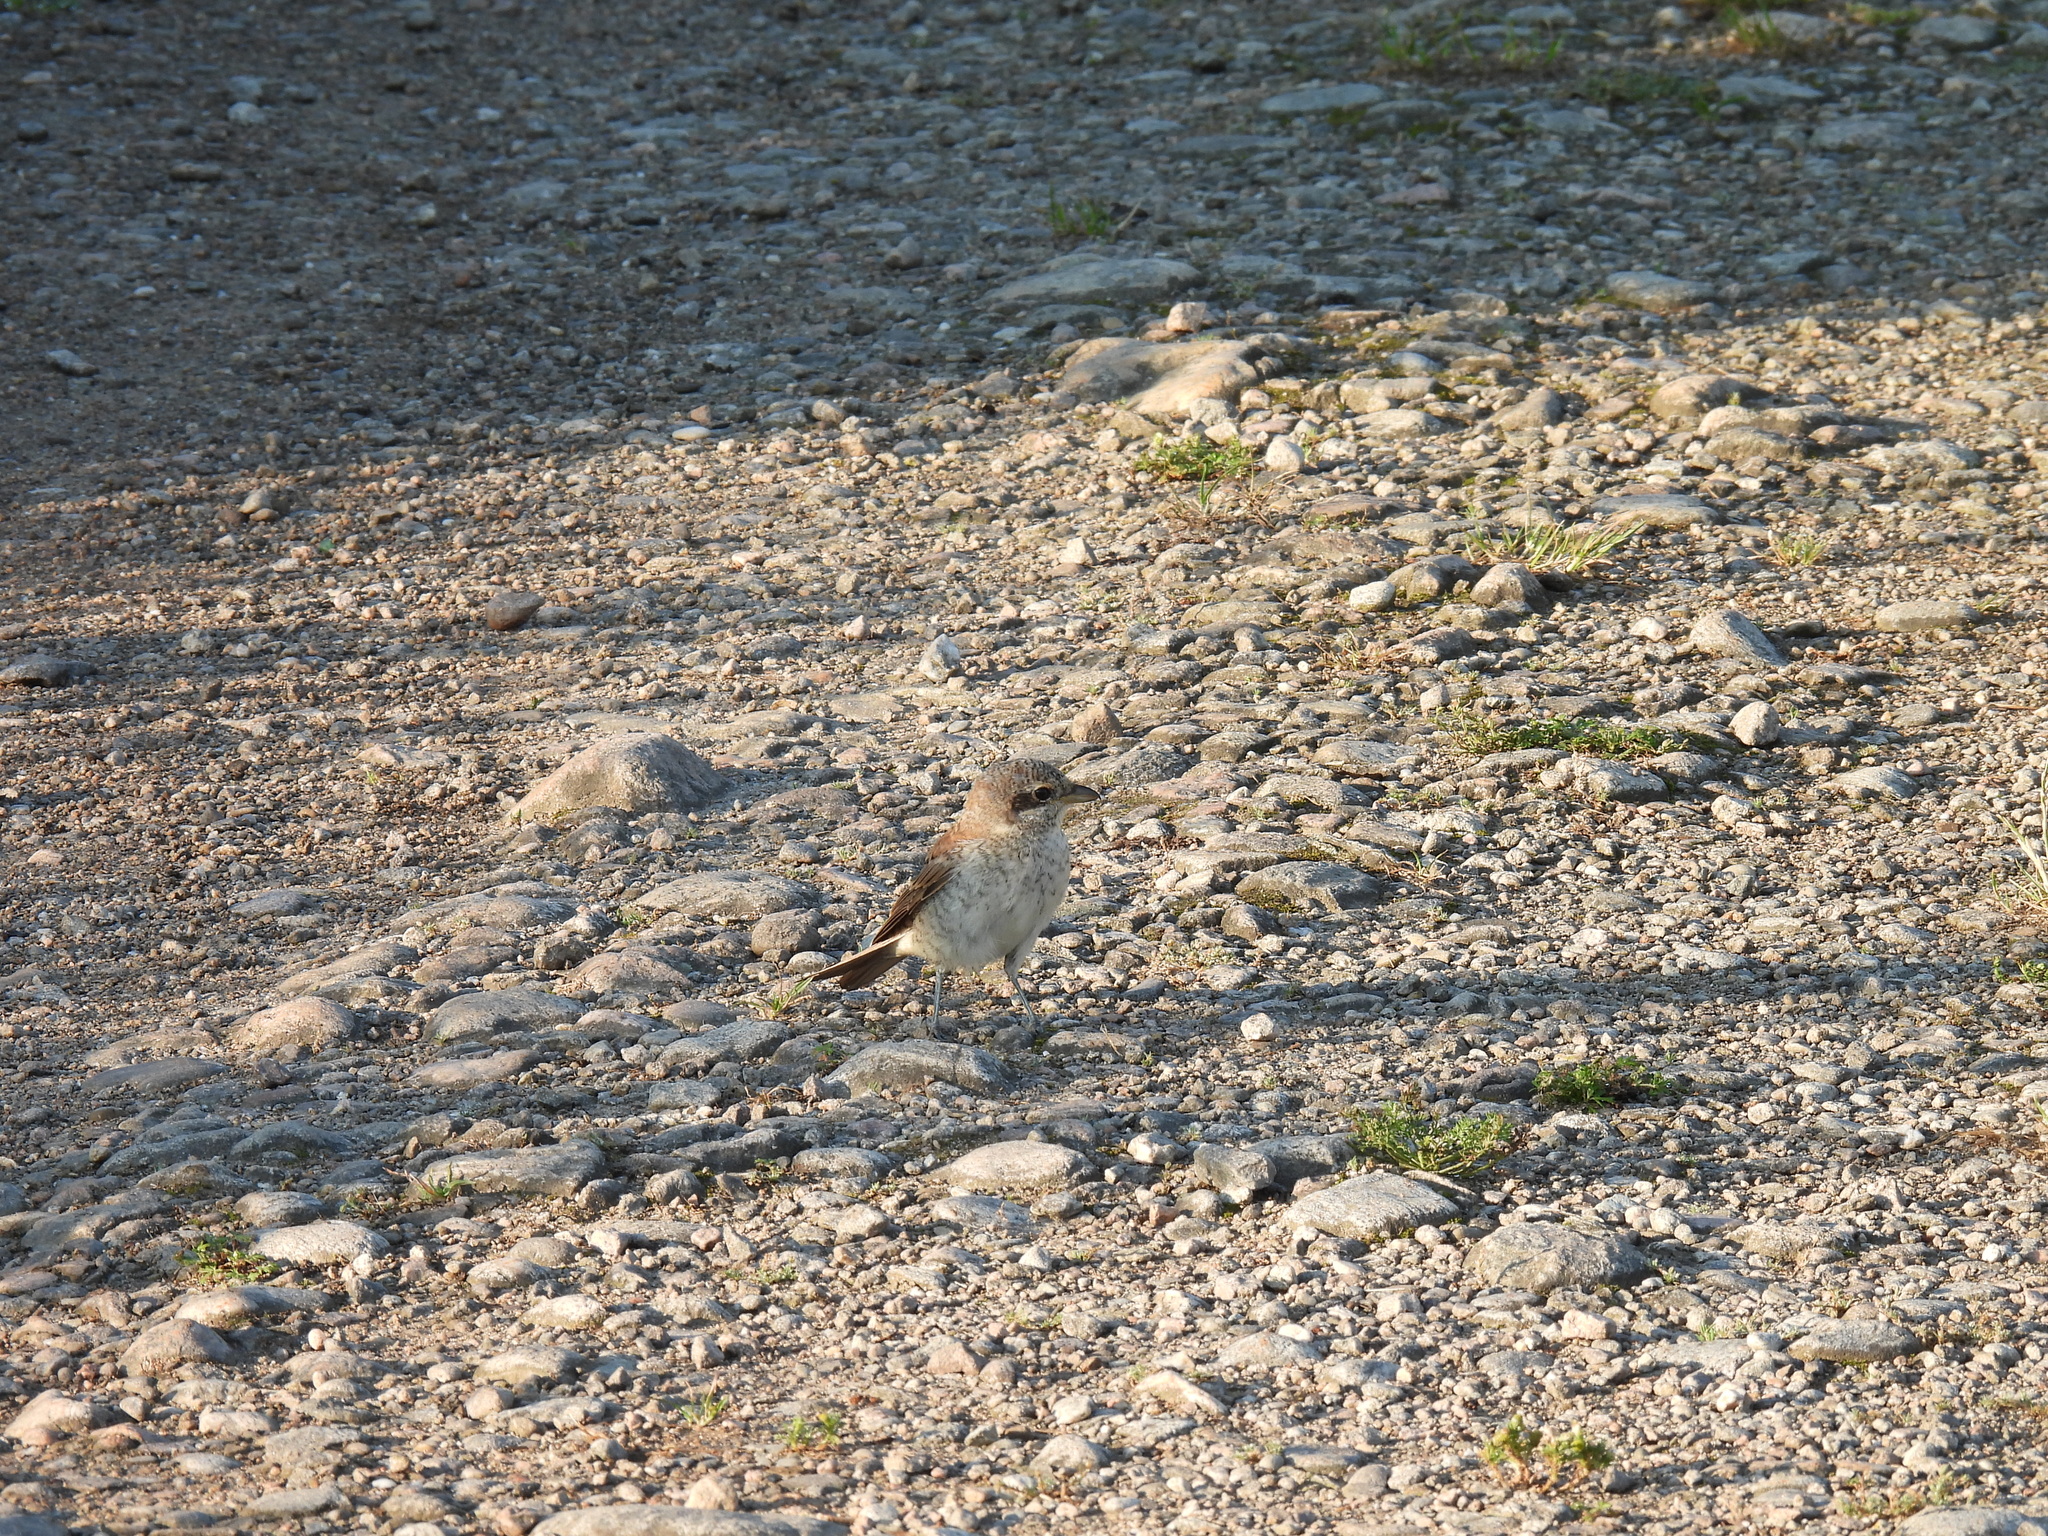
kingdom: Animalia
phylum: Chordata
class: Aves
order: Passeriformes
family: Laniidae
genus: Lanius
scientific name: Lanius collurio
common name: Red-backed shrike
